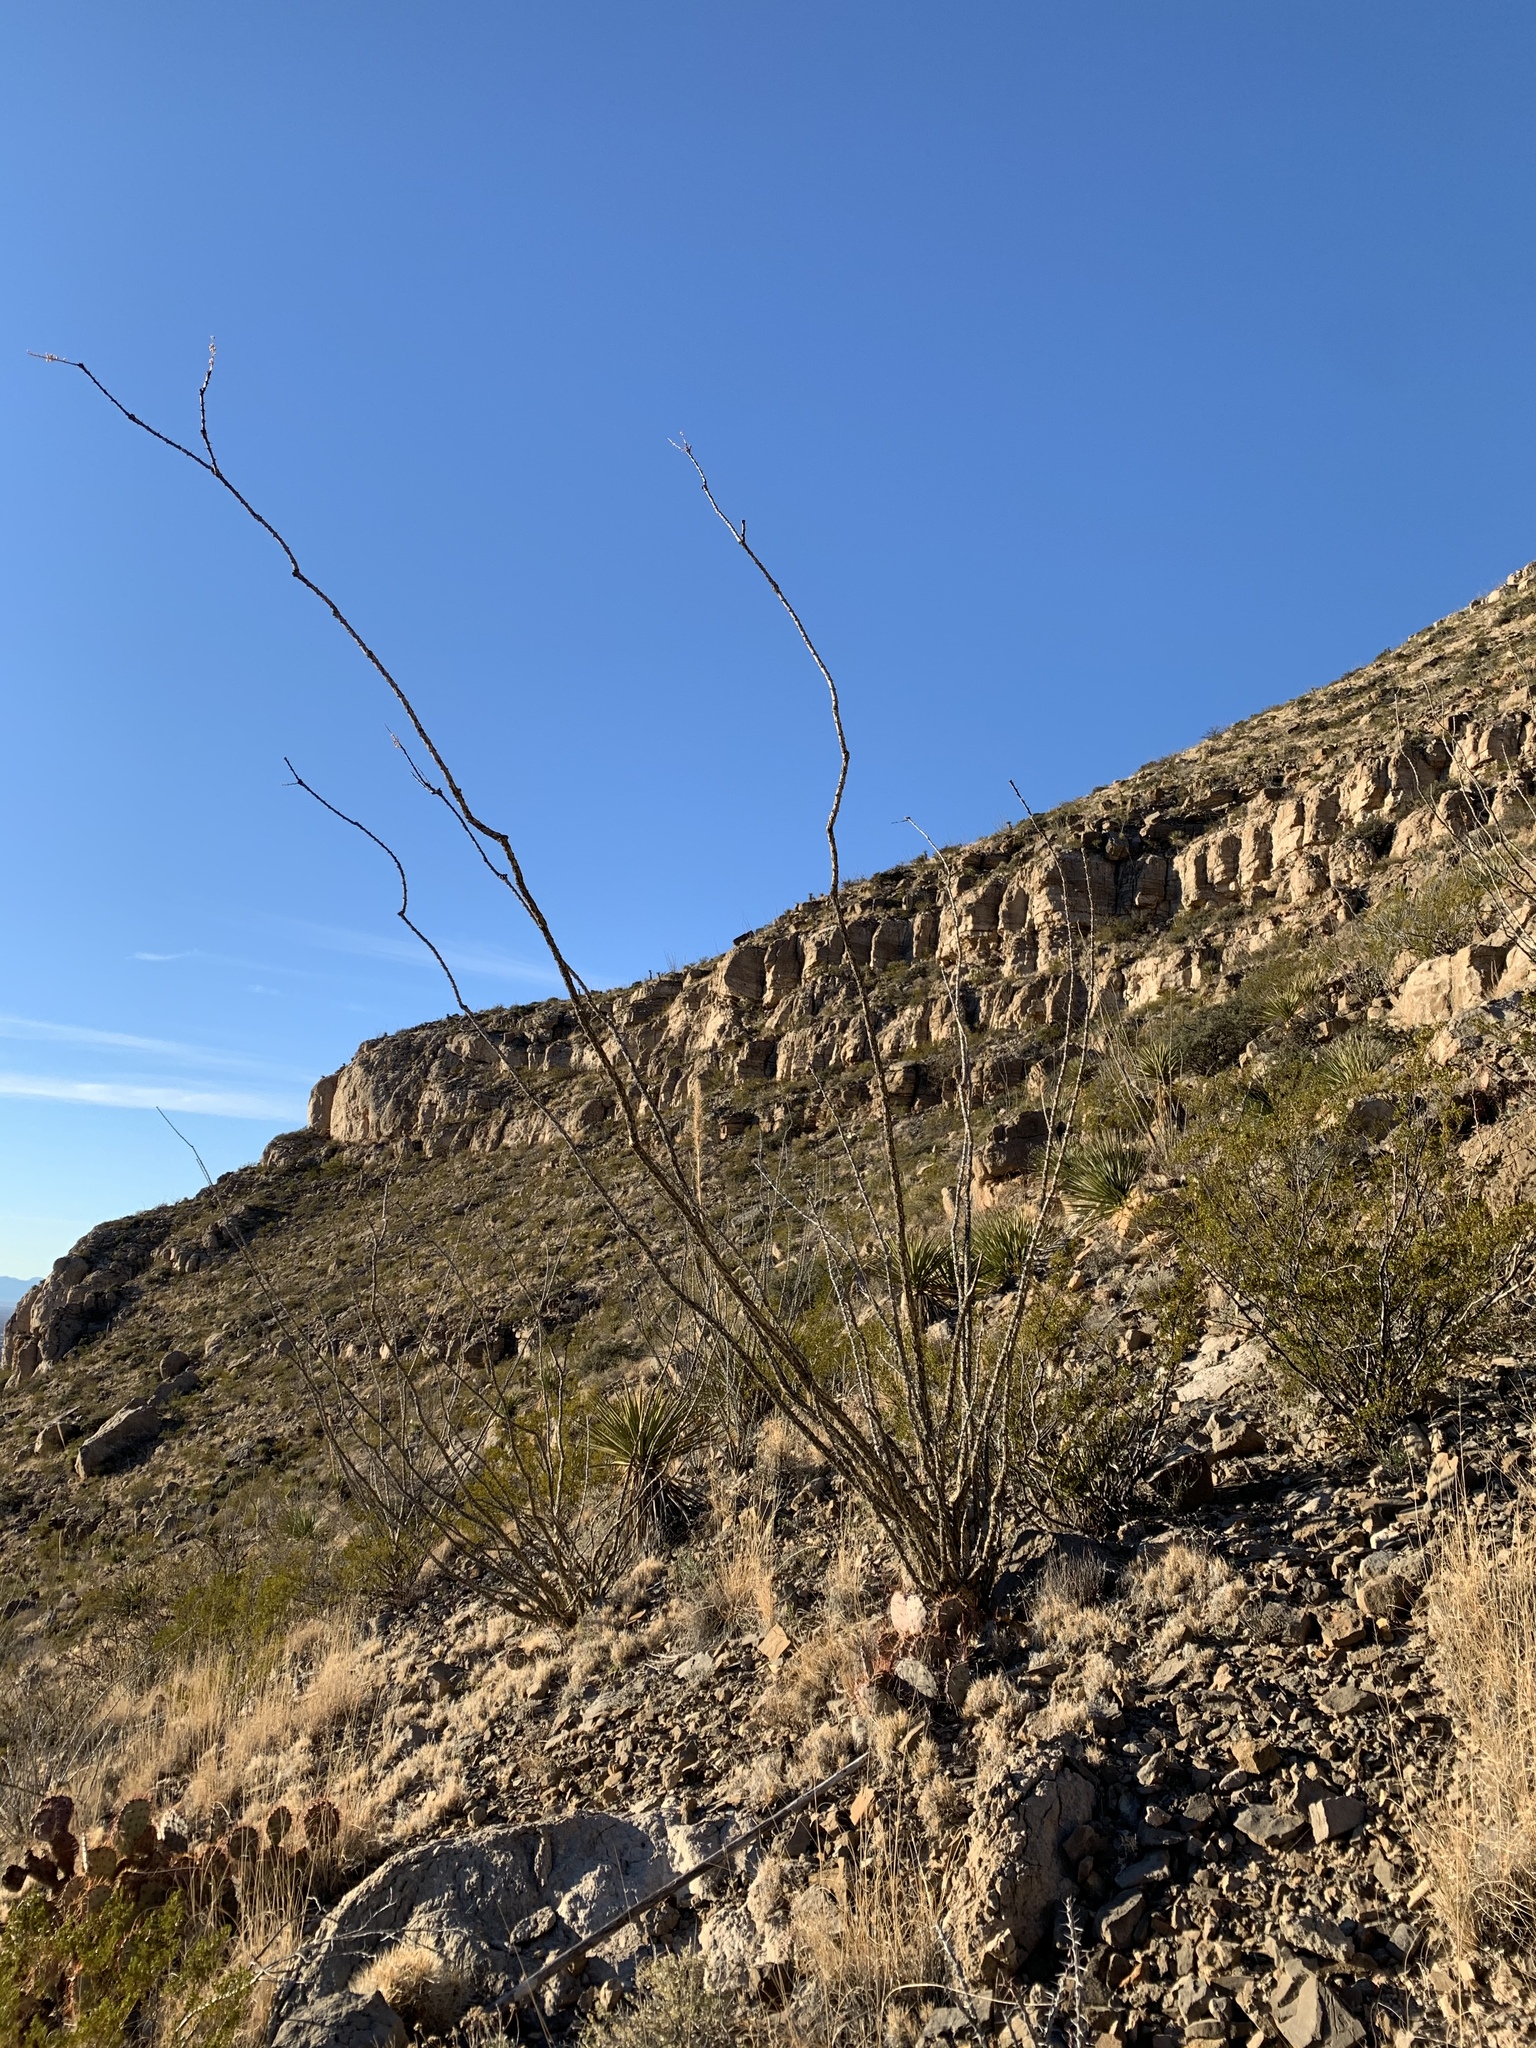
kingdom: Plantae
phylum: Tracheophyta
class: Magnoliopsida
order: Ericales
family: Fouquieriaceae
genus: Fouquieria
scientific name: Fouquieria splendens
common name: Vine-cactus
